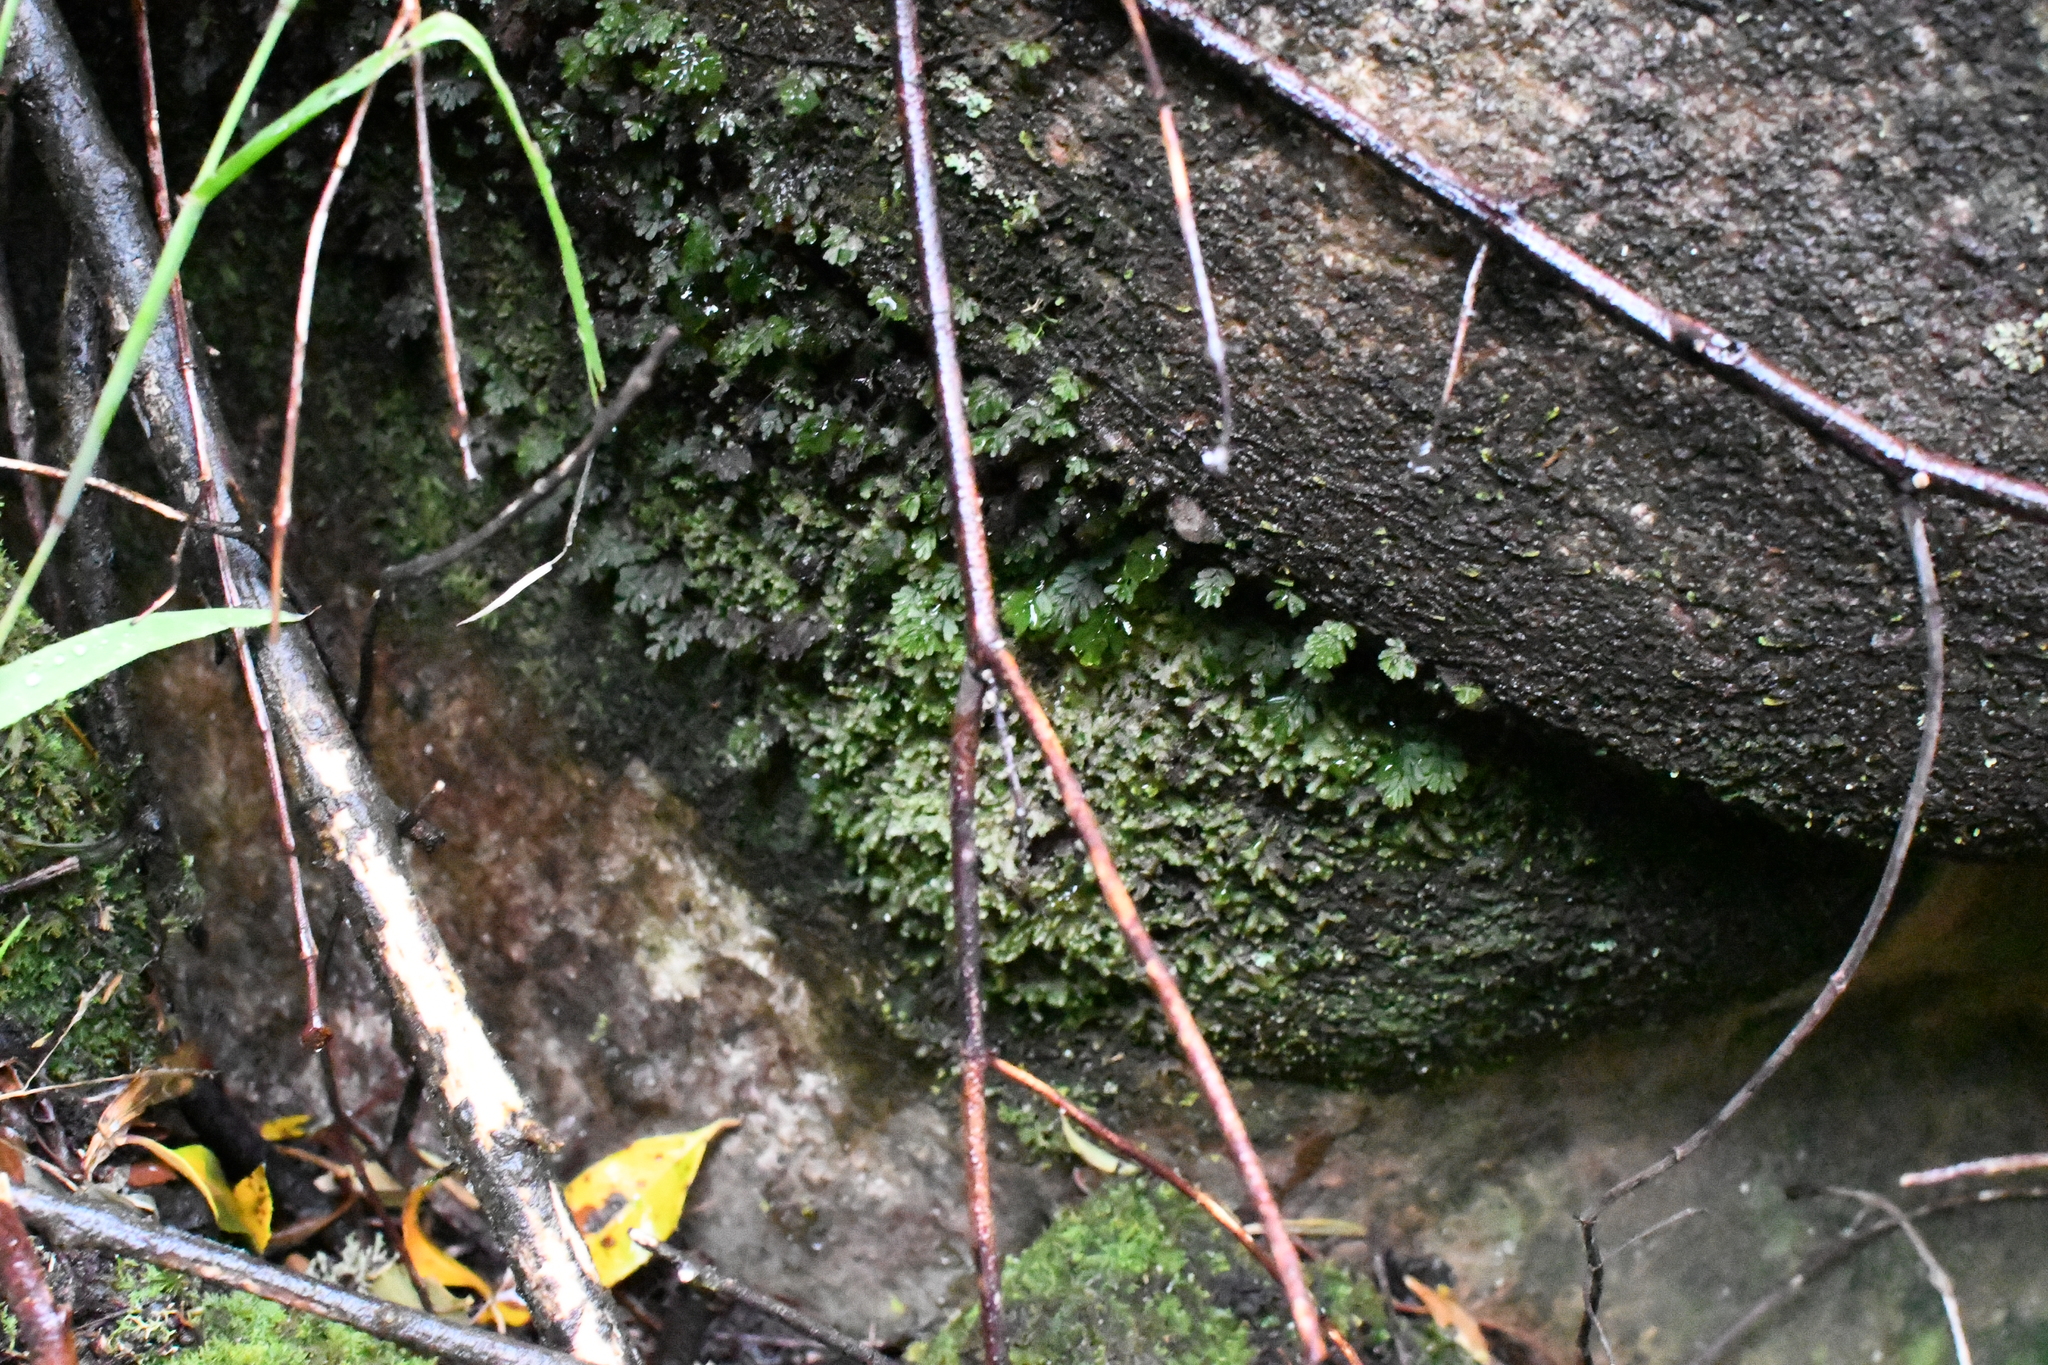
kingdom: Plantae
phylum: Tracheophyta
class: Polypodiopsida
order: Hymenophyllales
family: Hymenophyllaceae
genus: Hymenophyllum
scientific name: Hymenophyllum cupressiforme
